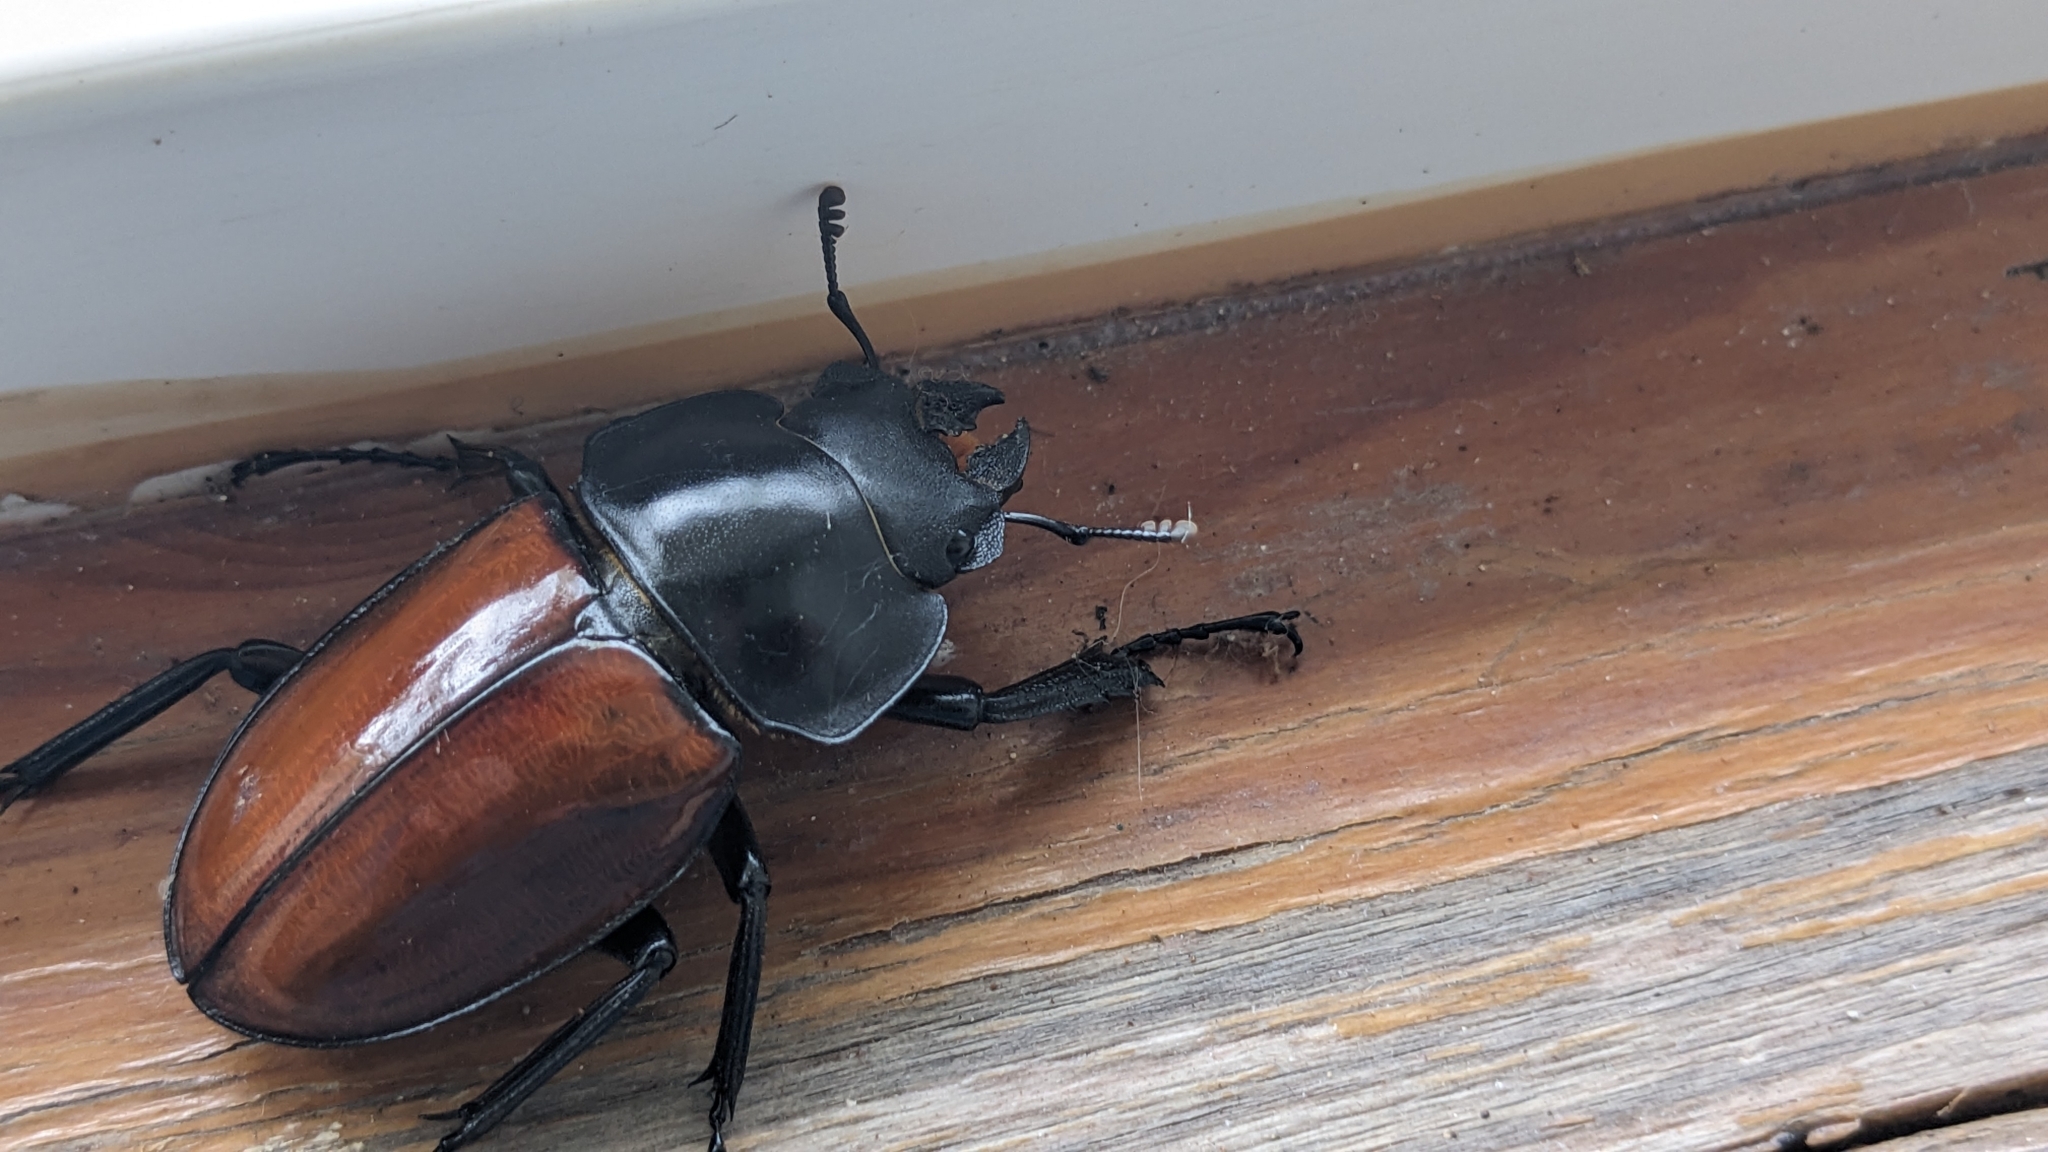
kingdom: Animalia
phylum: Arthropoda
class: Insecta
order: Coleoptera
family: Lucanidae
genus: Neolucanus
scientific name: Neolucanus swinhoei
